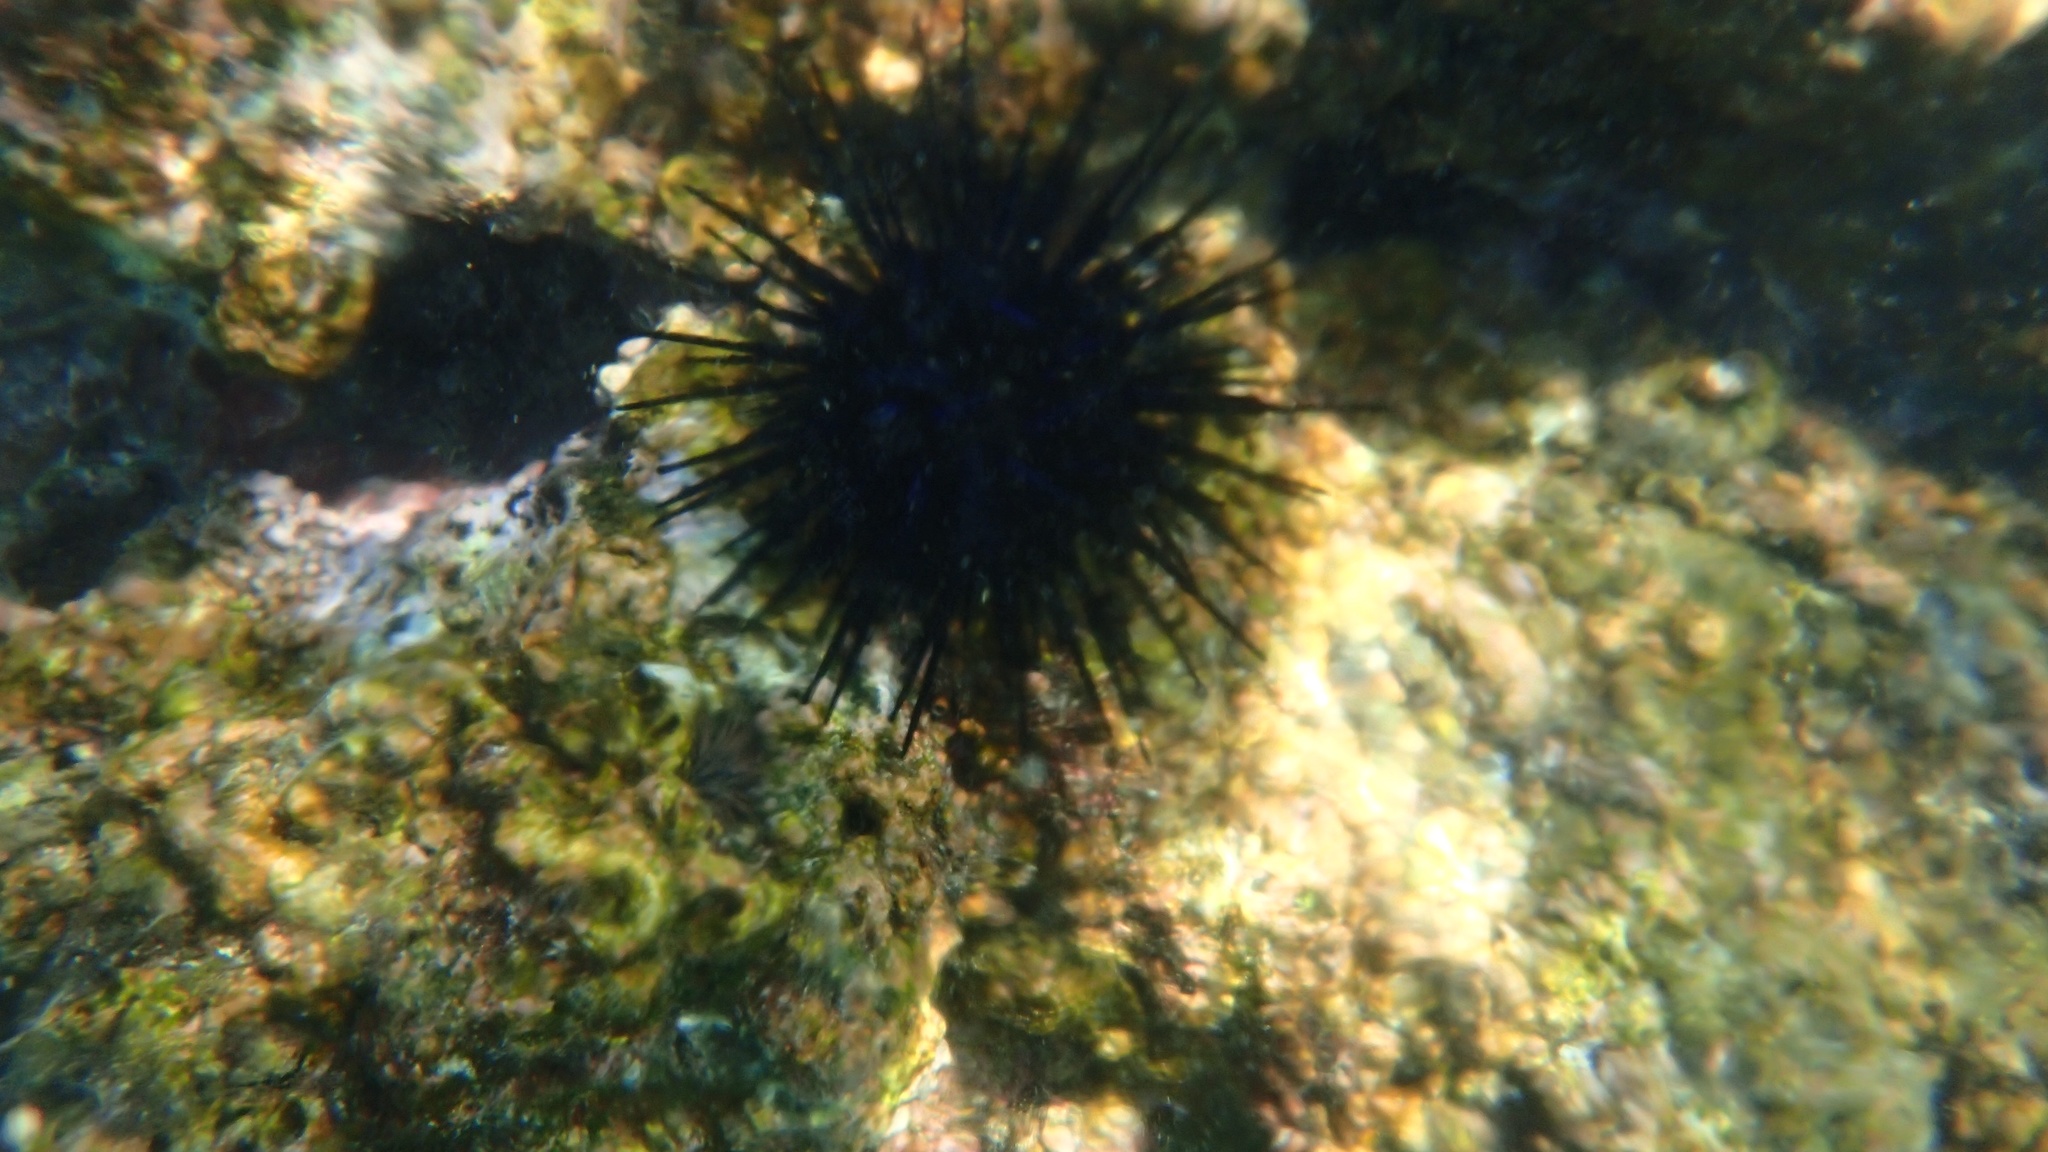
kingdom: Animalia
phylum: Echinodermata
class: Echinoidea
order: Diadematoida
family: Diadematidae
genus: Echinothrix
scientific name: Echinothrix diadema
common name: Schwarzer diademseeigel
